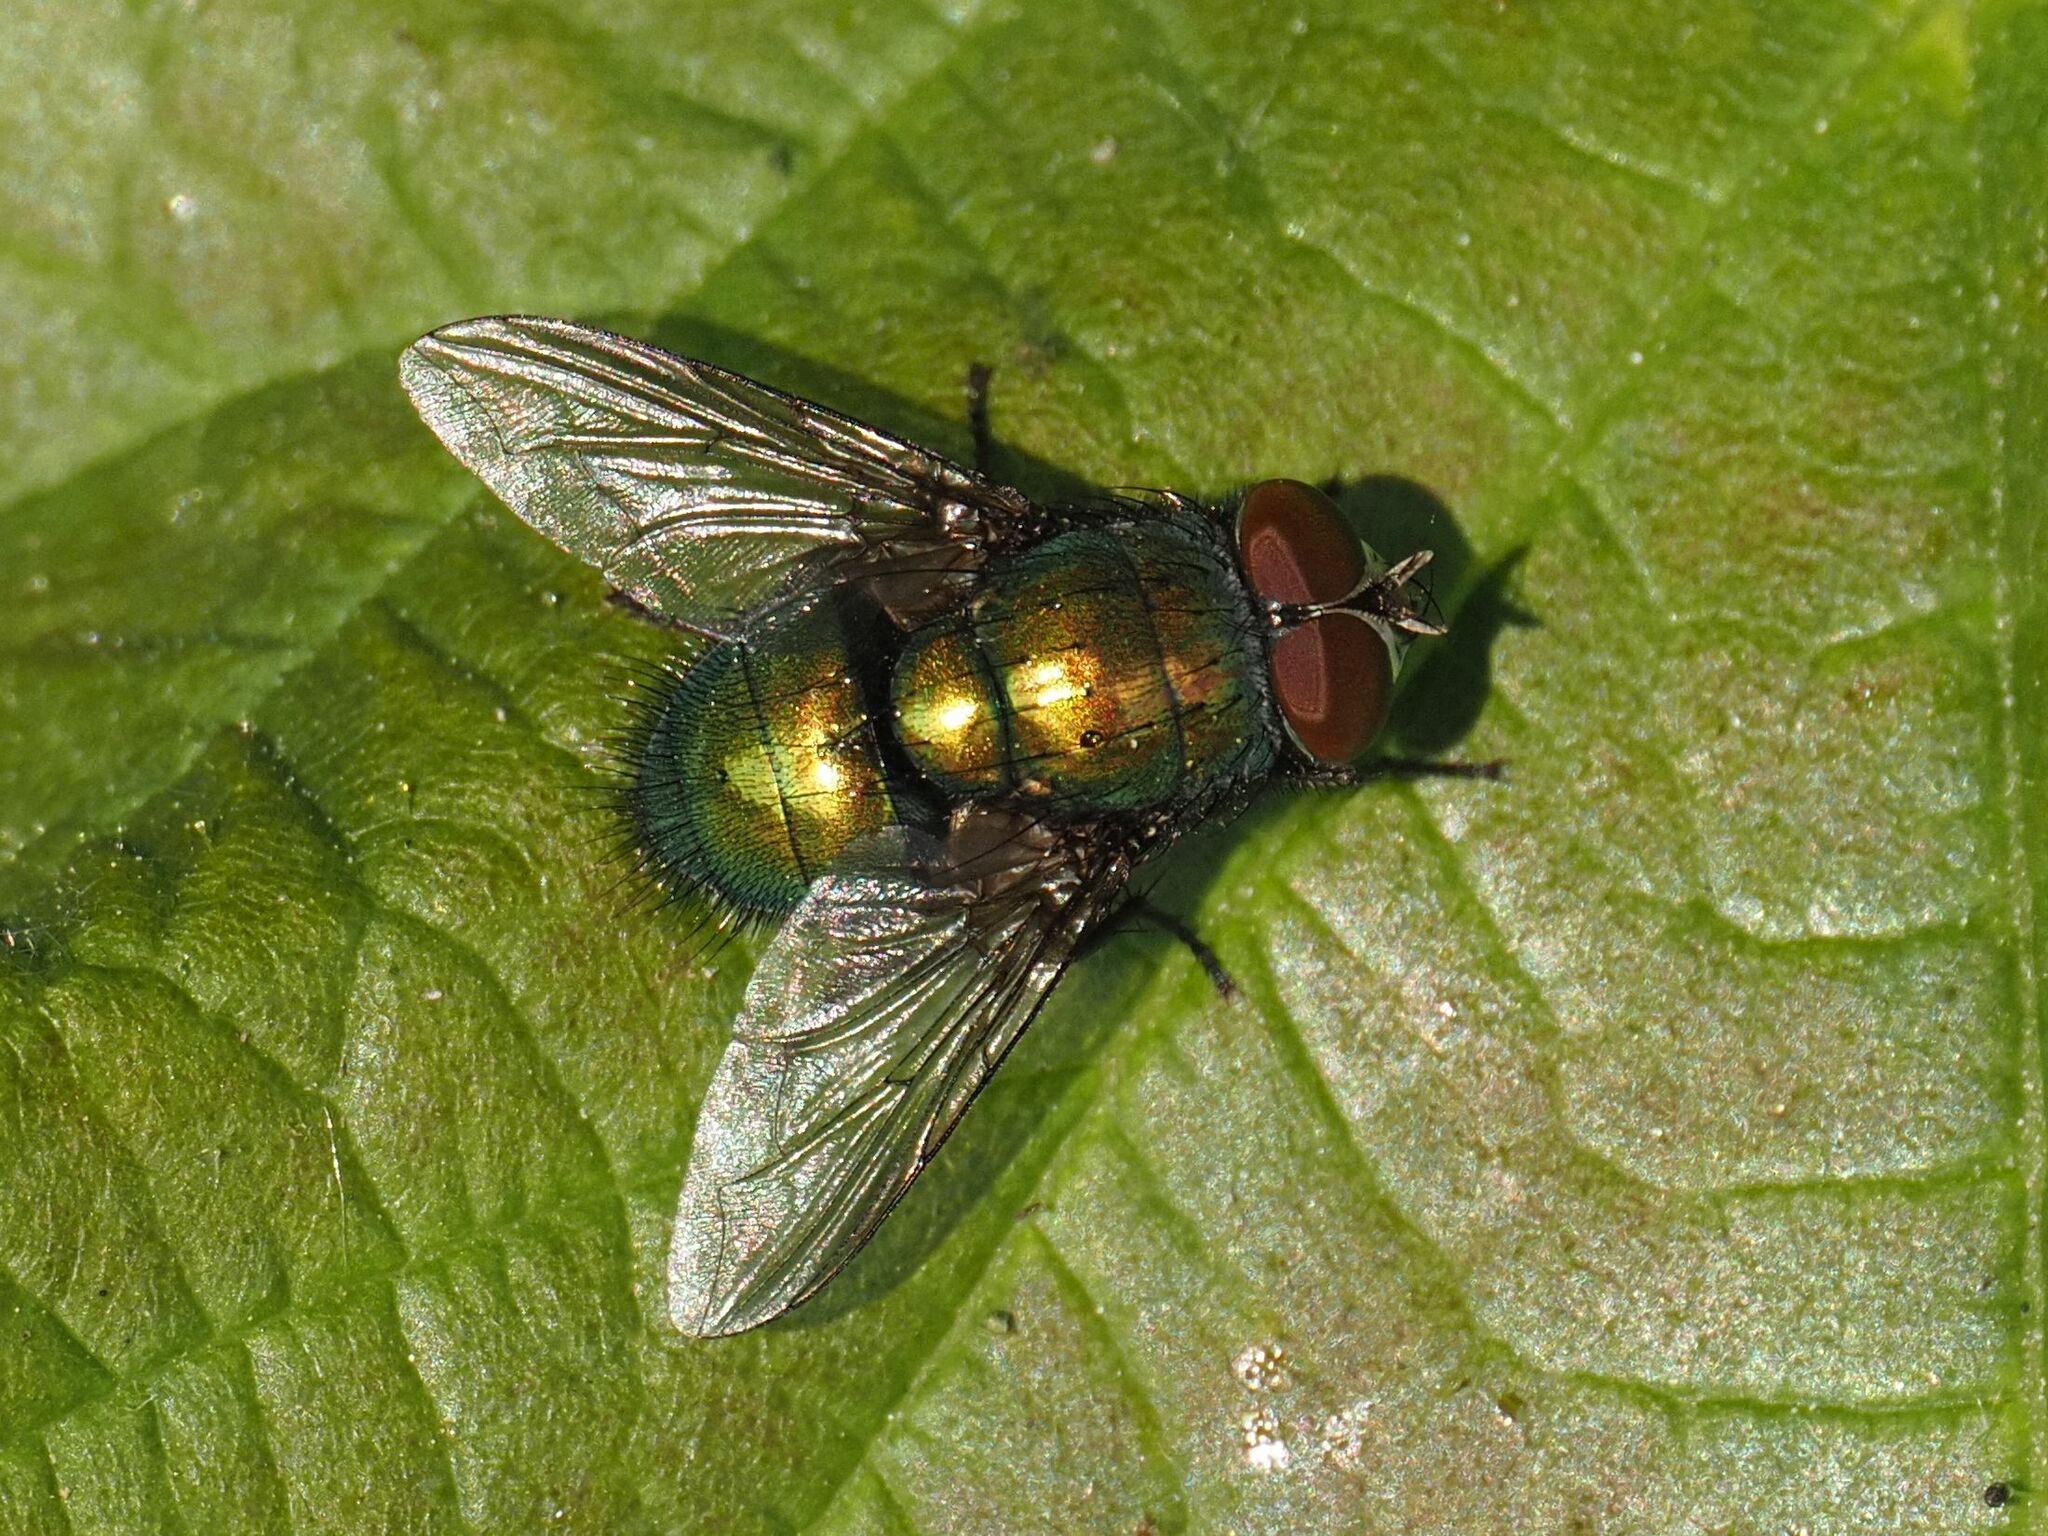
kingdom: Animalia
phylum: Arthropoda
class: Insecta
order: Diptera
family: Calliphoridae
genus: Lucilia
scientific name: Lucilia
